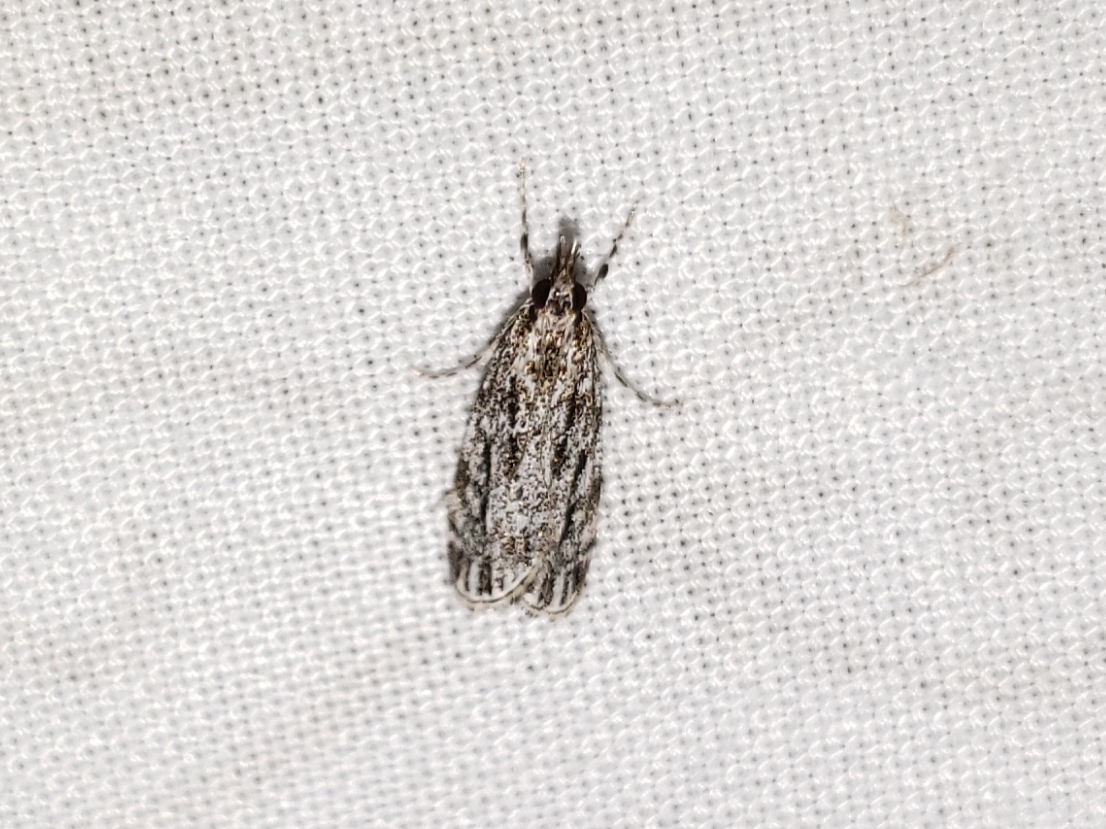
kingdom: Animalia
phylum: Arthropoda
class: Insecta
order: Lepidoptera
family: Crambidae
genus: Eudonia
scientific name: Eudonia strigalis
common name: Striped eudonia moth
